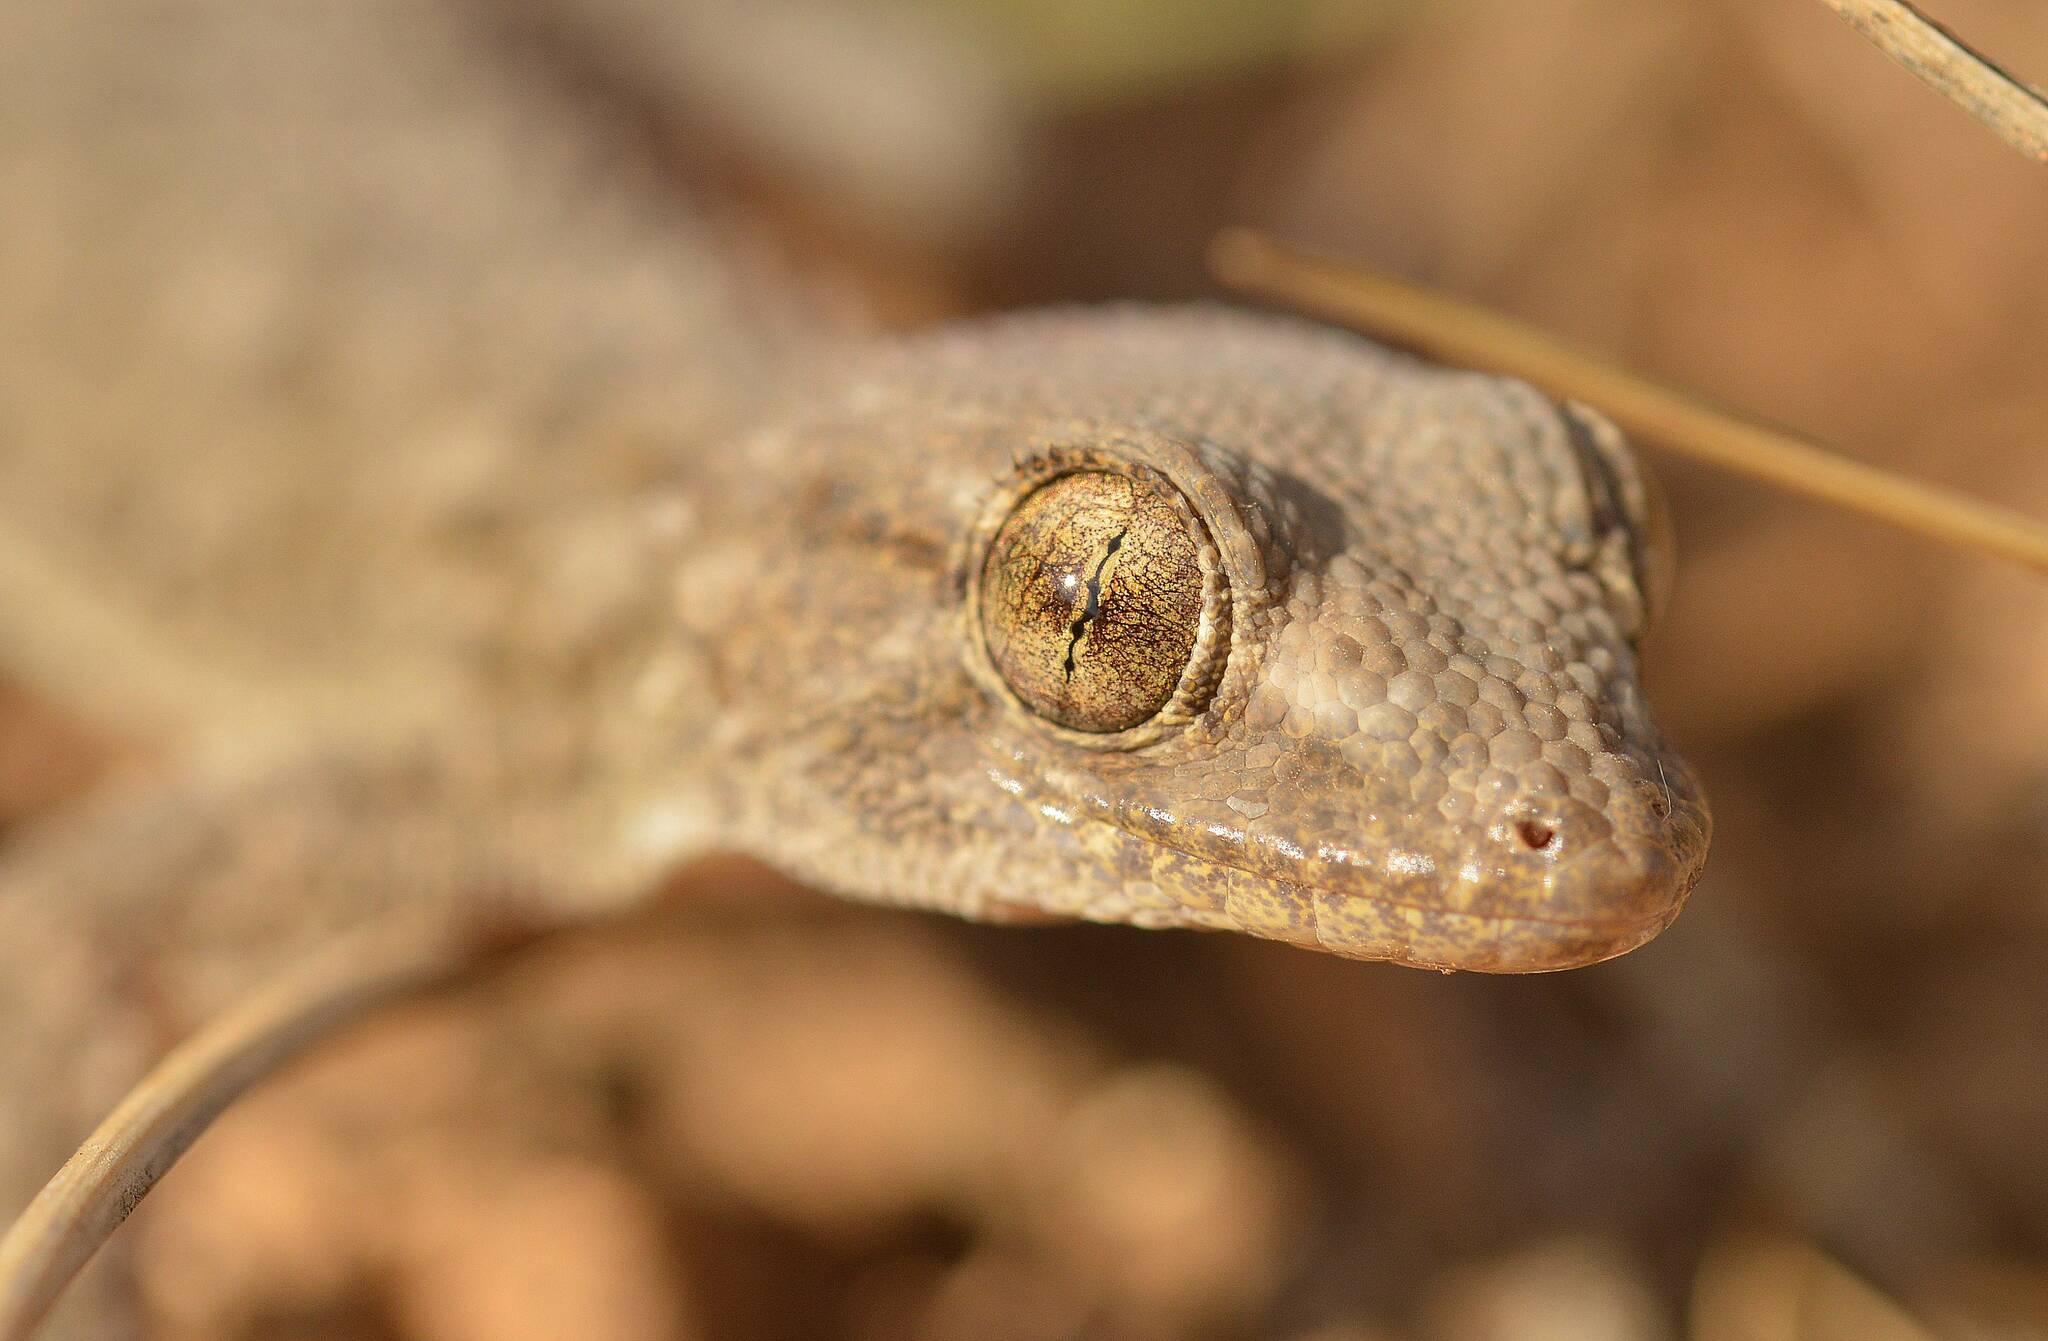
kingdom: Animalia
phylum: Chordata
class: Squamata
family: Phyllodactylidae
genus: Tarentola
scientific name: Tarentola mauritanica
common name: Moorish gecko
